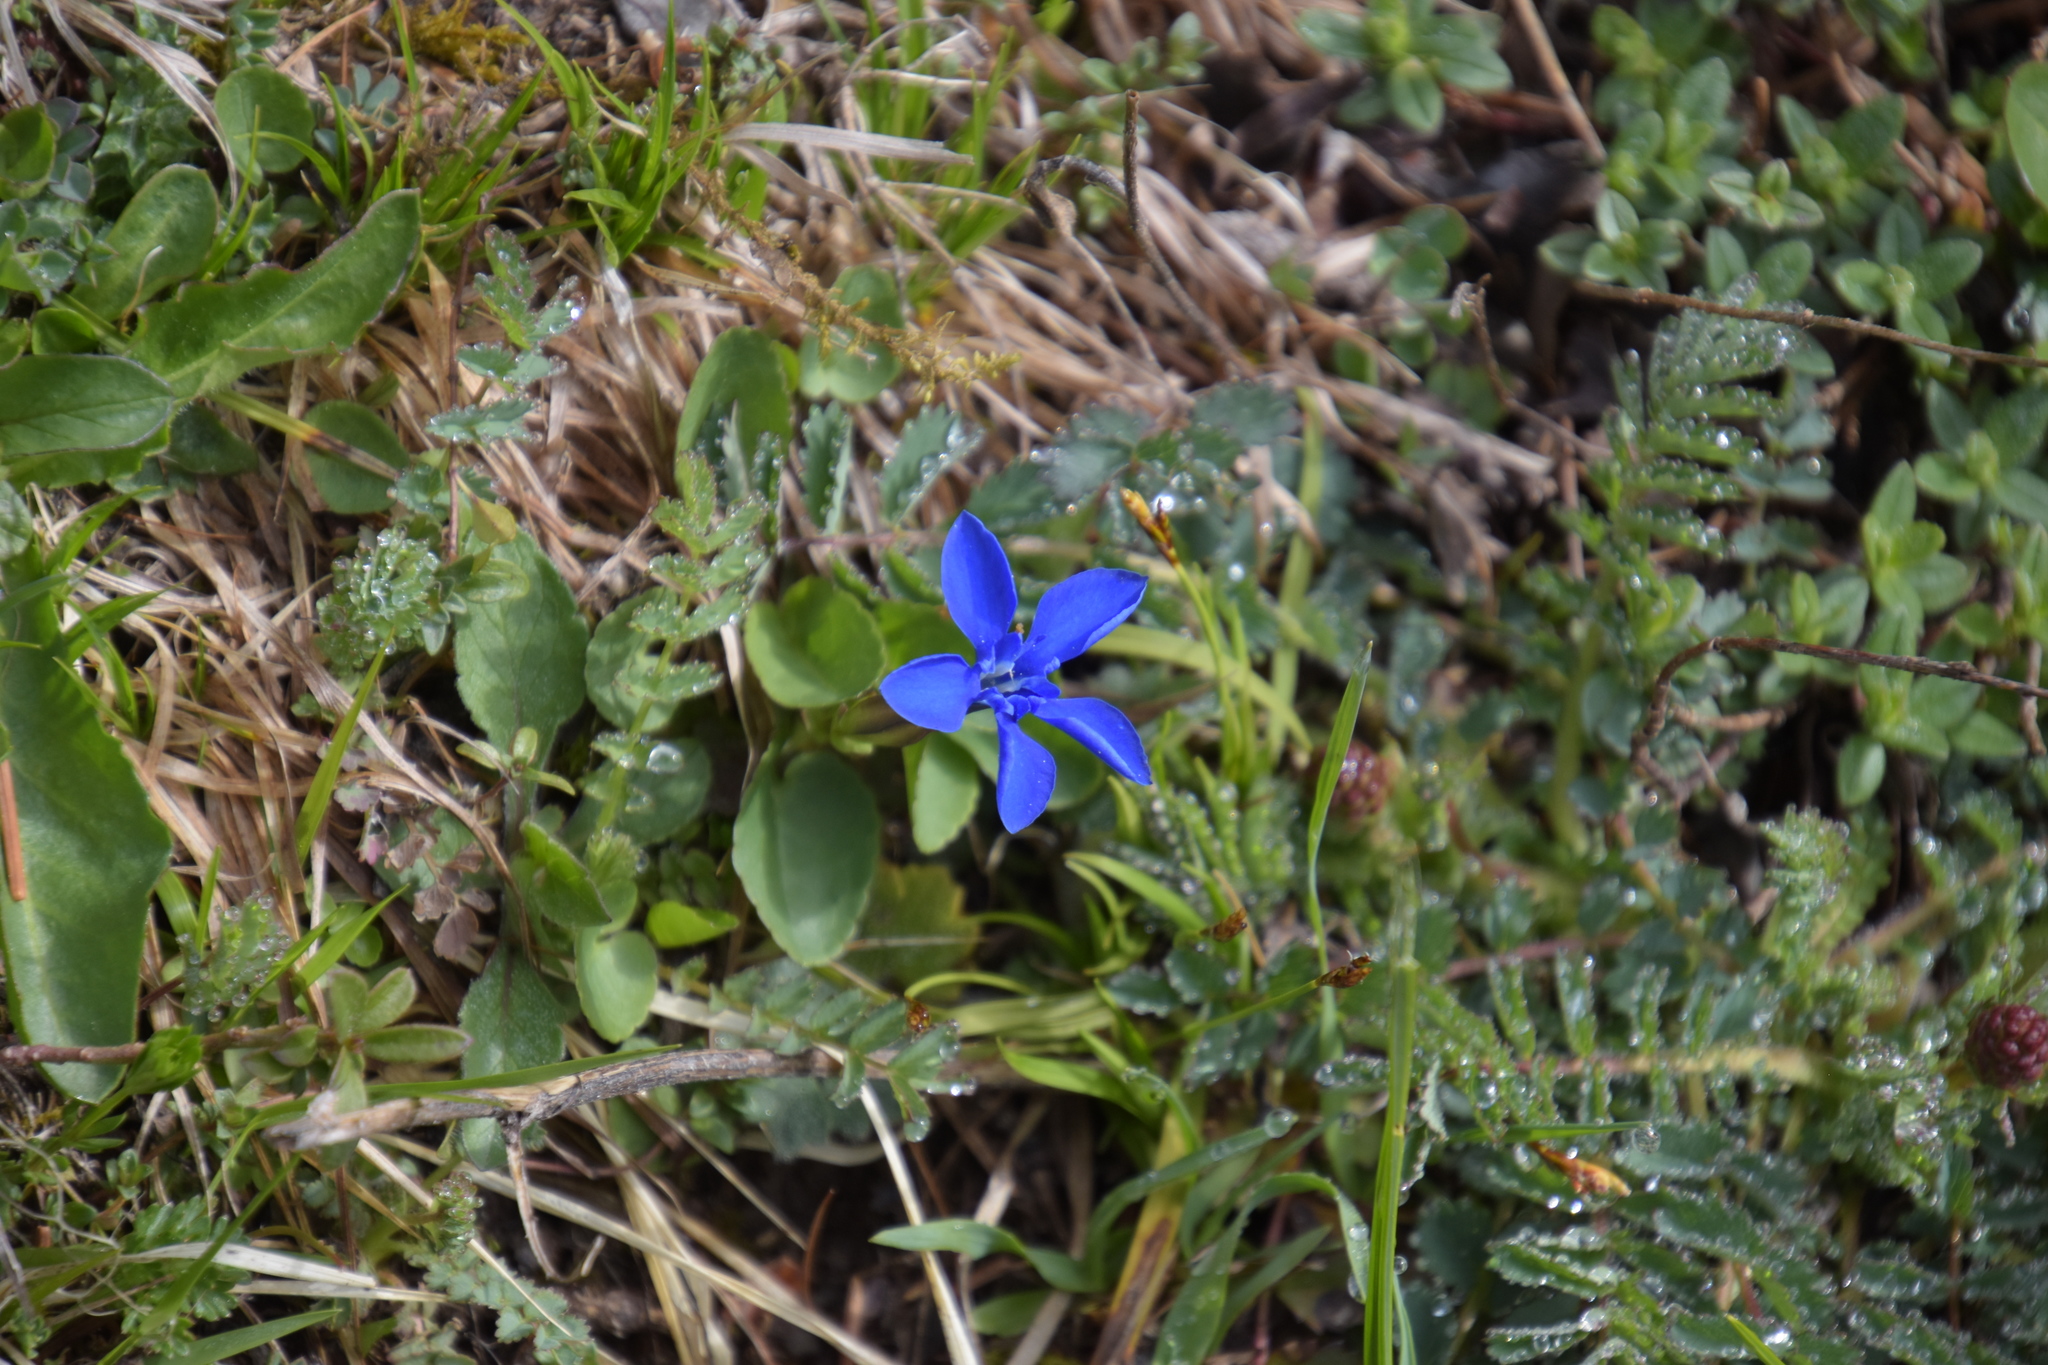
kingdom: Plantae
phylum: Tracheophyta
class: Magnoliopsida
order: Gentianales
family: Gentianaceae
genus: Gentiana
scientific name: Gentiana verna
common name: Spring gentian
